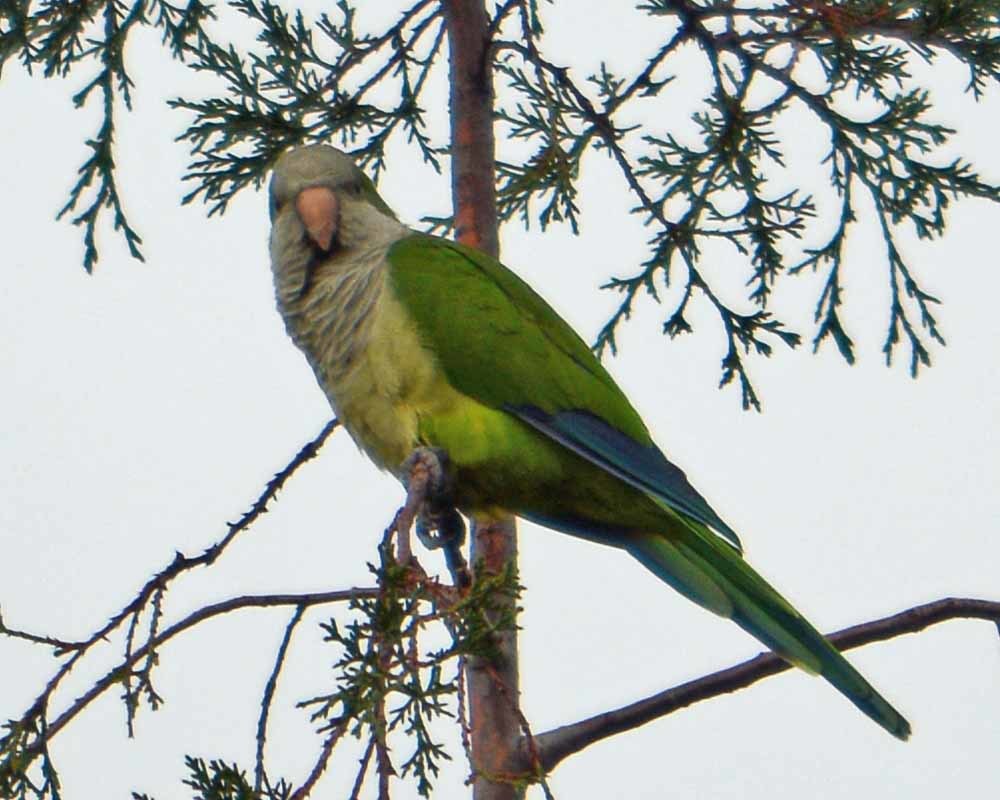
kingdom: Animalia
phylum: Chordata
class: Aves
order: Psittaciformes
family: Psittacidae
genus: Myiopsitta
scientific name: Myiopsitta monachus
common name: Monk parakeet
